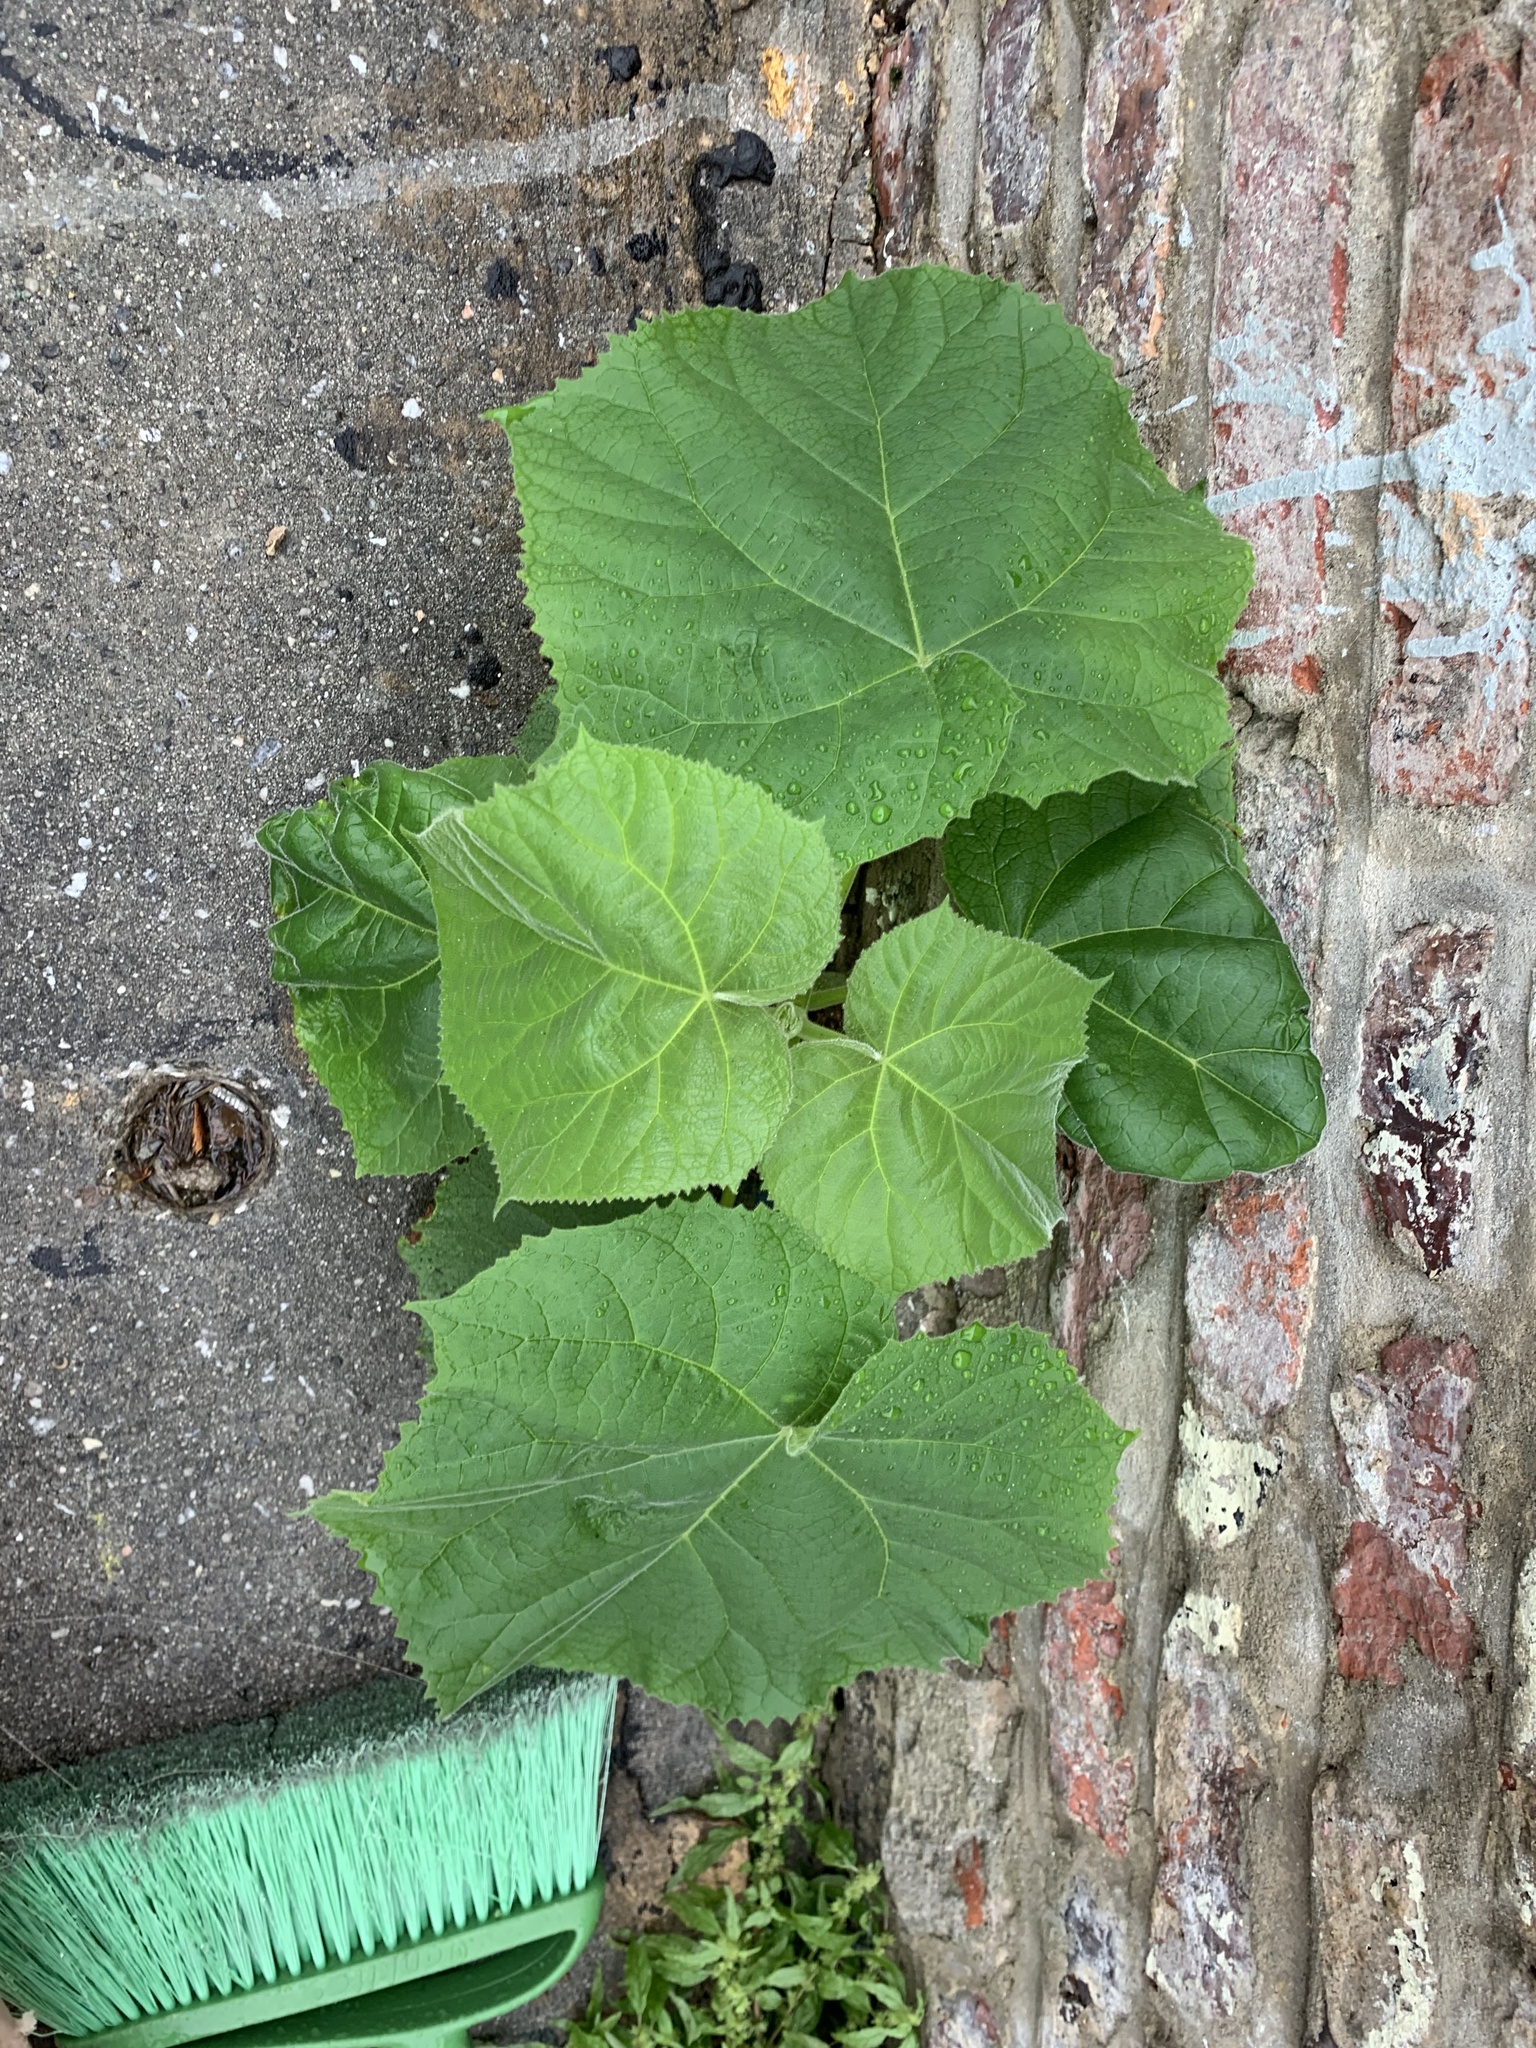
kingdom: Plantae
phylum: Tracheophyta
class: Magnoliopsida
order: Lamiales
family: Paulowniaceae
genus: Paulownia
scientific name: Paulownia tomentosa
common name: Foxglove-tree
